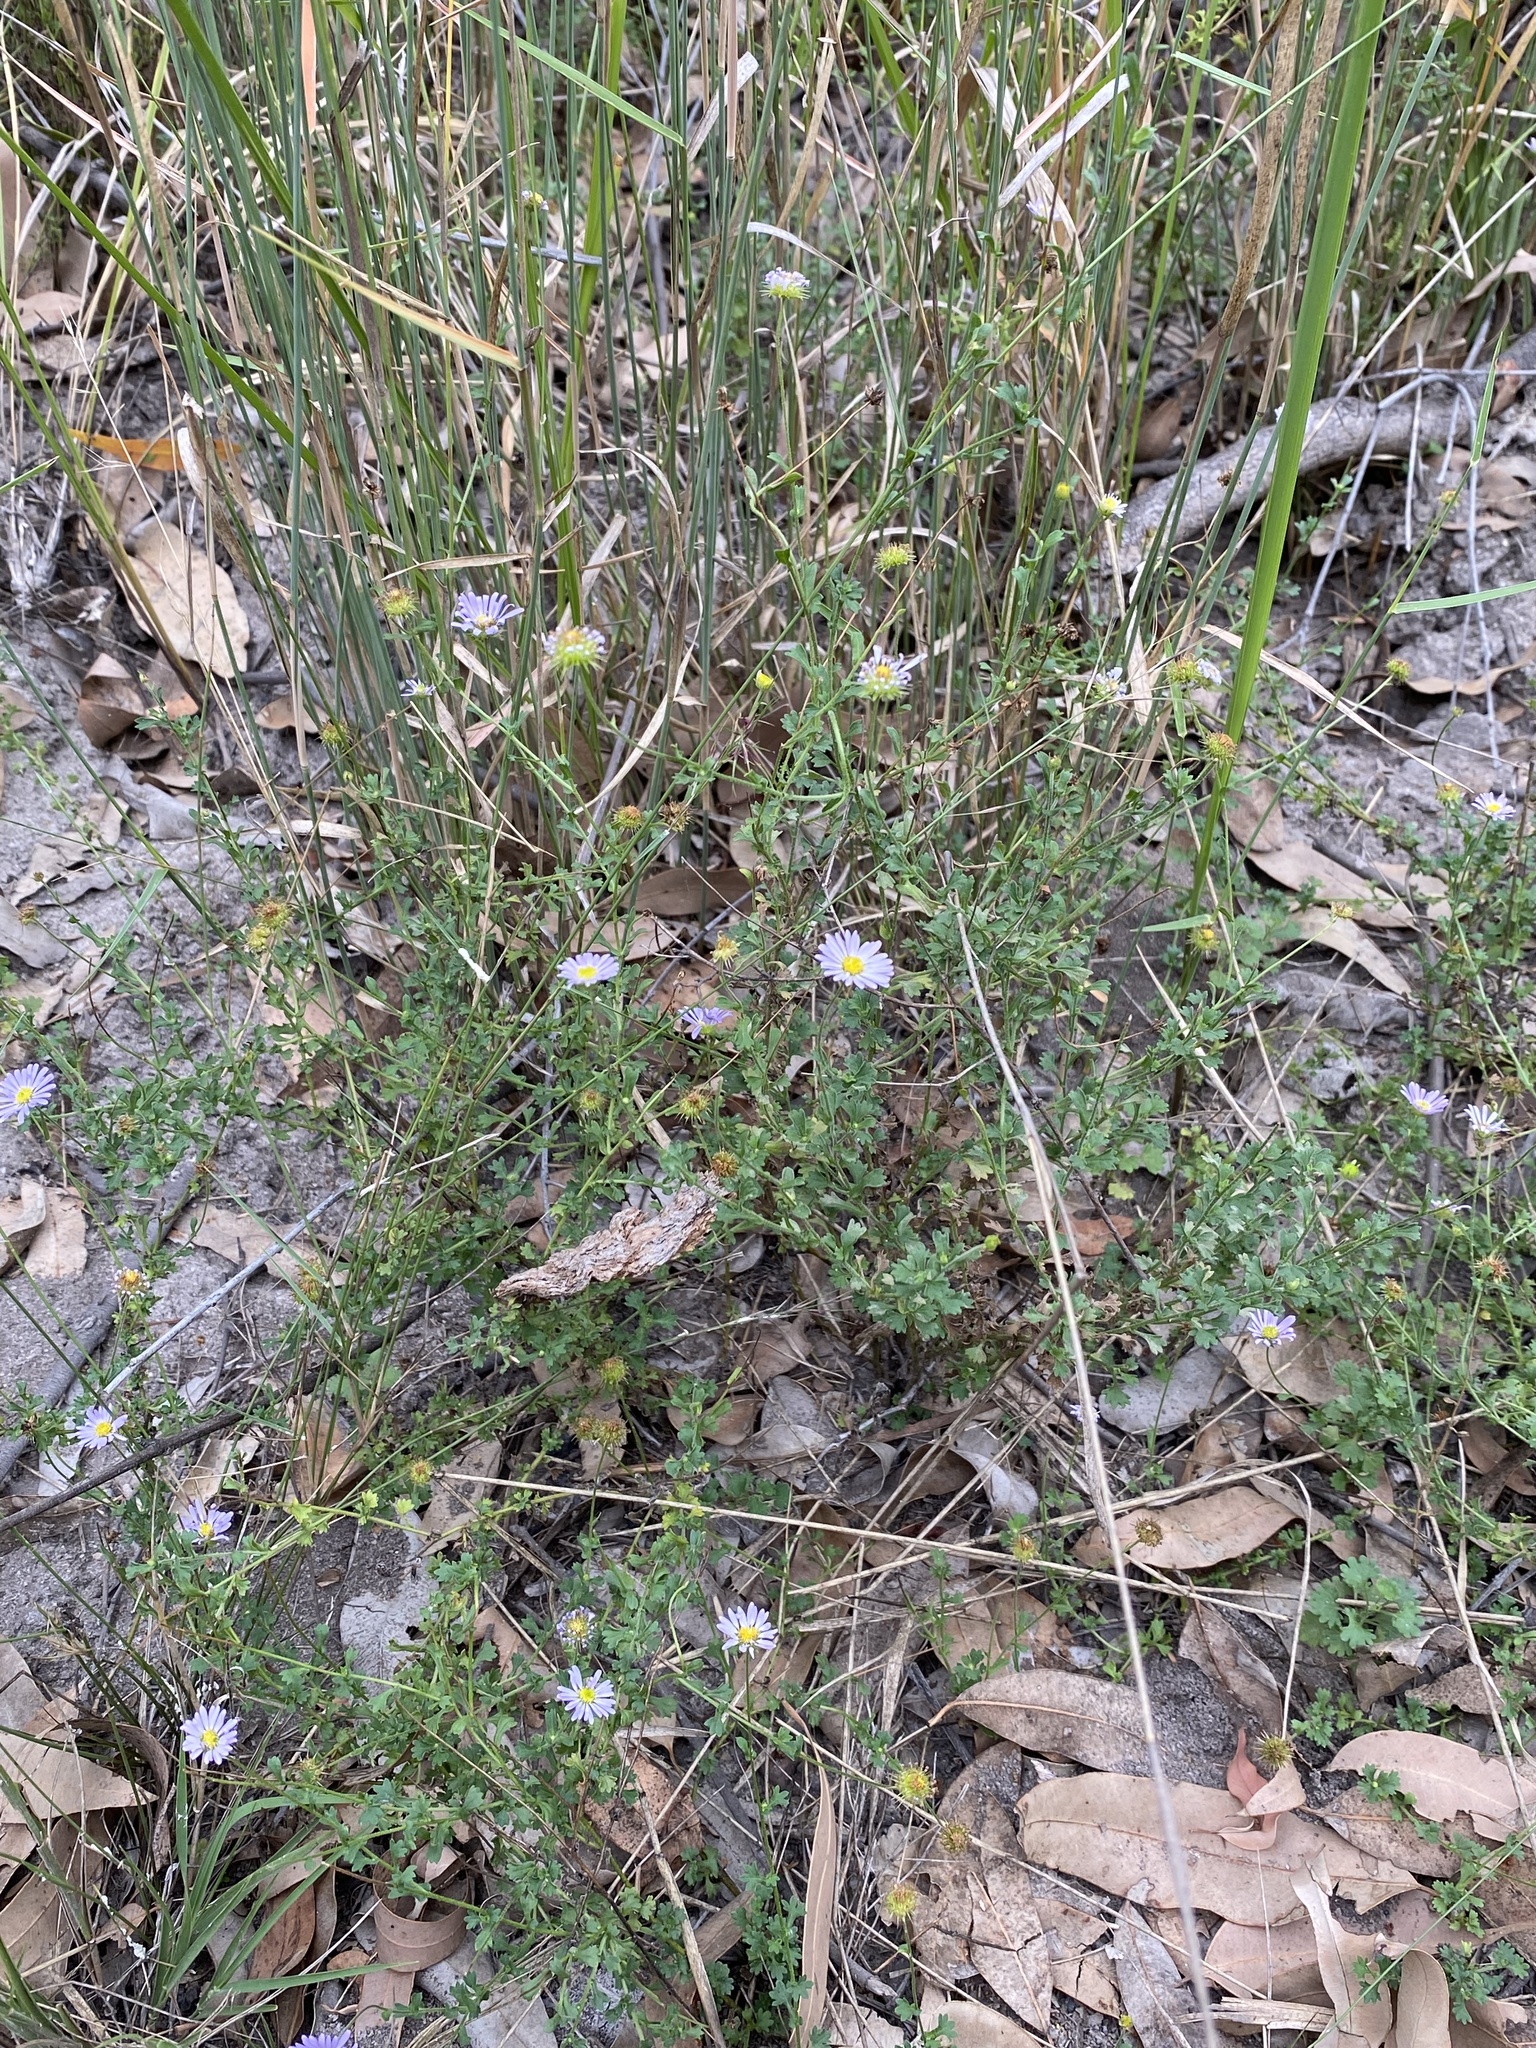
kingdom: Plantae
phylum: Tracheophyta
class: Magnoliopsida
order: Asterales
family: Asteraceae
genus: Calotis
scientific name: Calotis cuneifolia
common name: Bur-daisy
